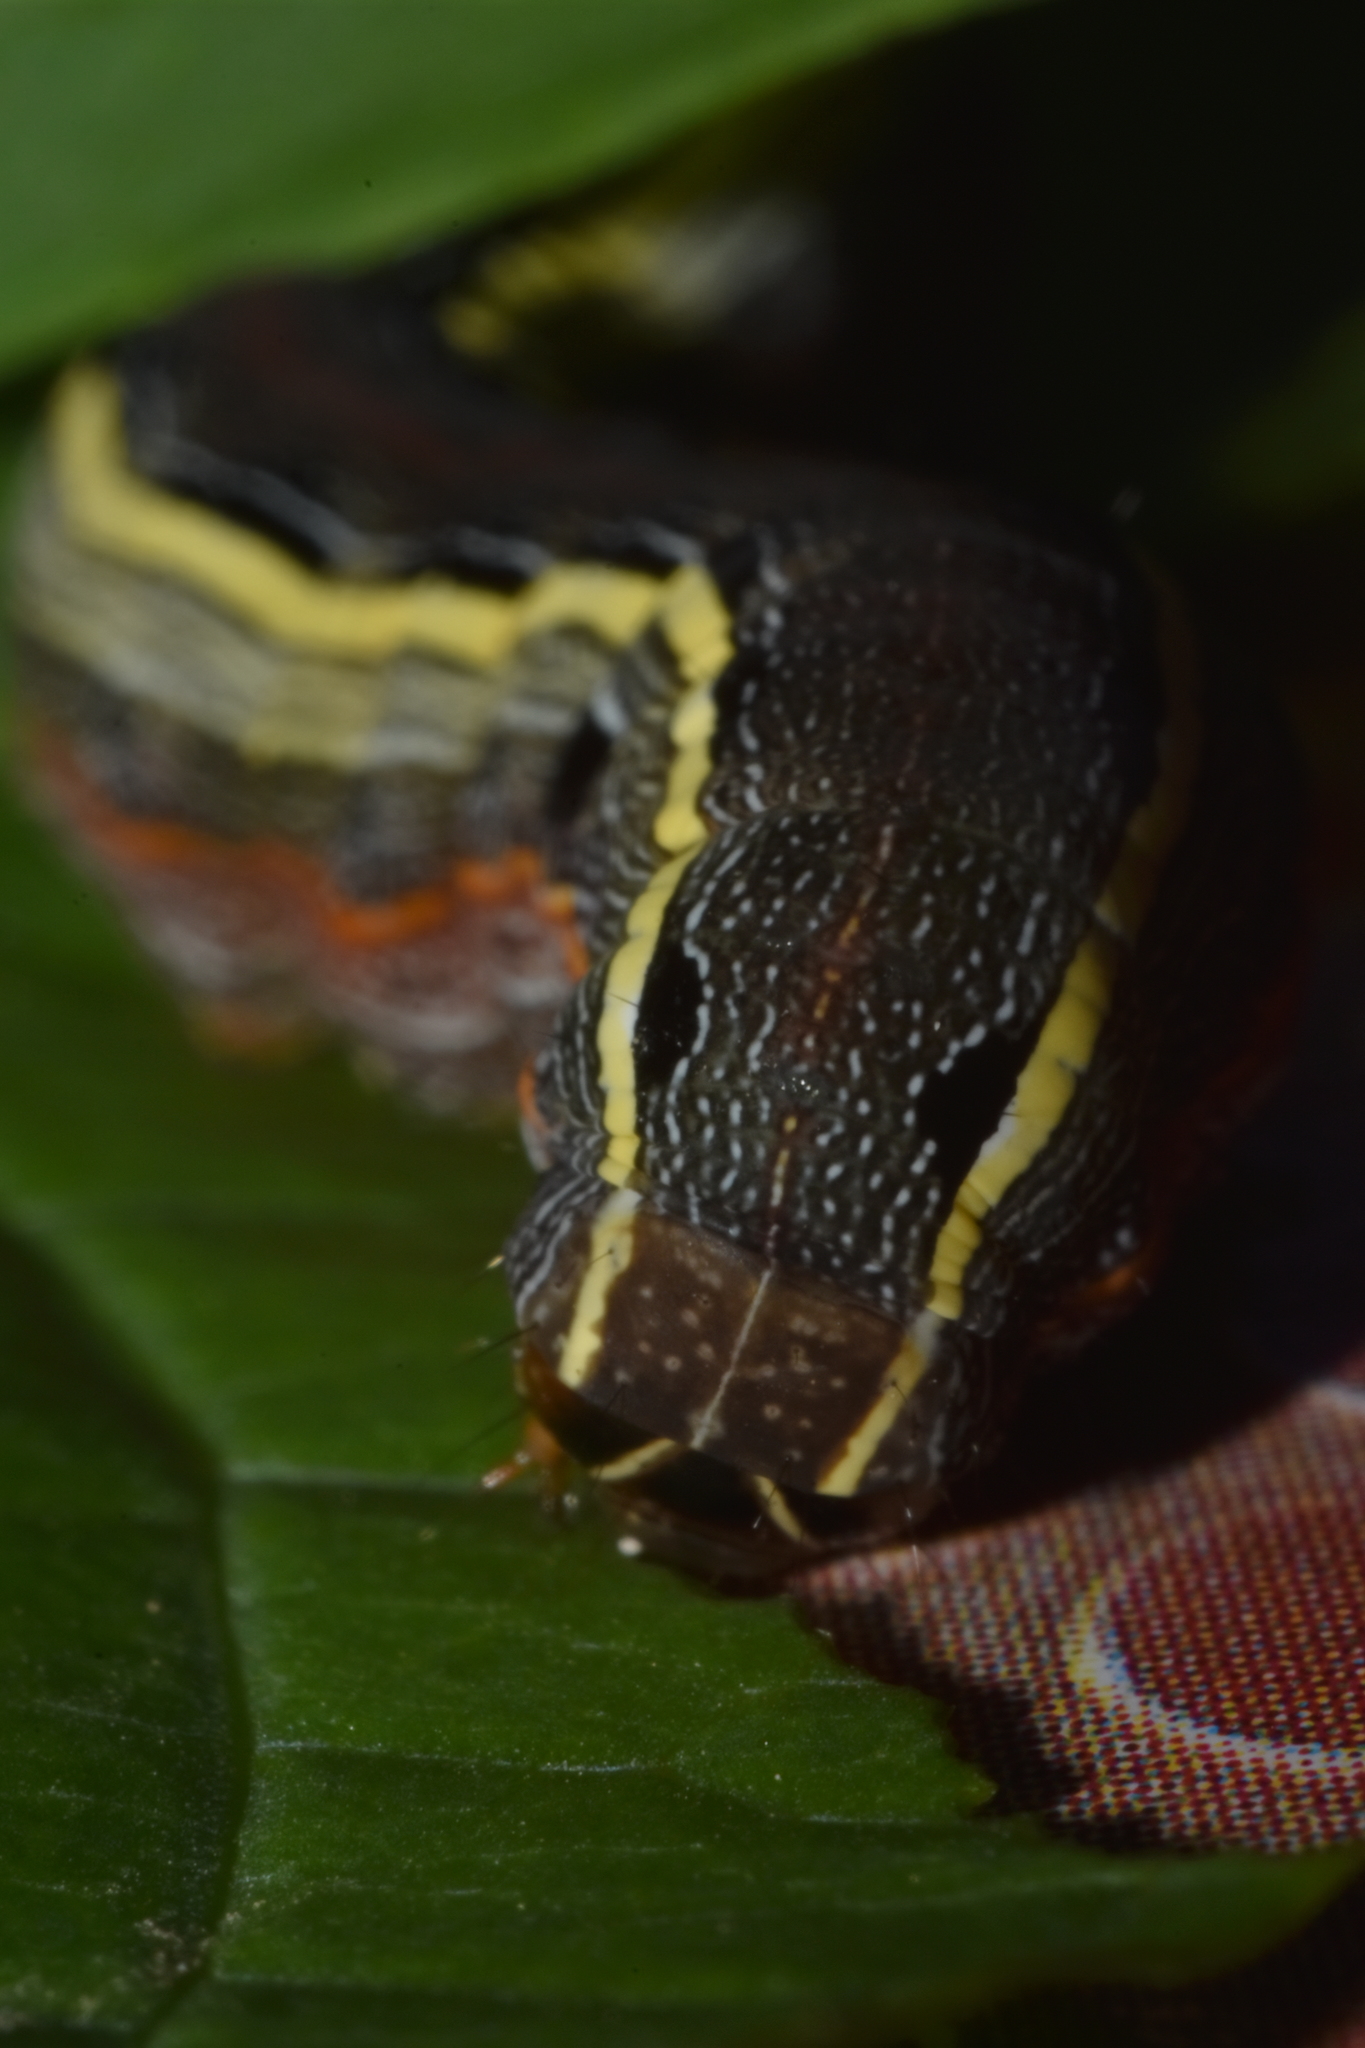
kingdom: Animalia
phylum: Arthropoda
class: Insecta
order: Lepidoptera
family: Noctuidae
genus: Spodoptera
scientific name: Spodoptera ornithogalli
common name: Yellow-striped armyworm
